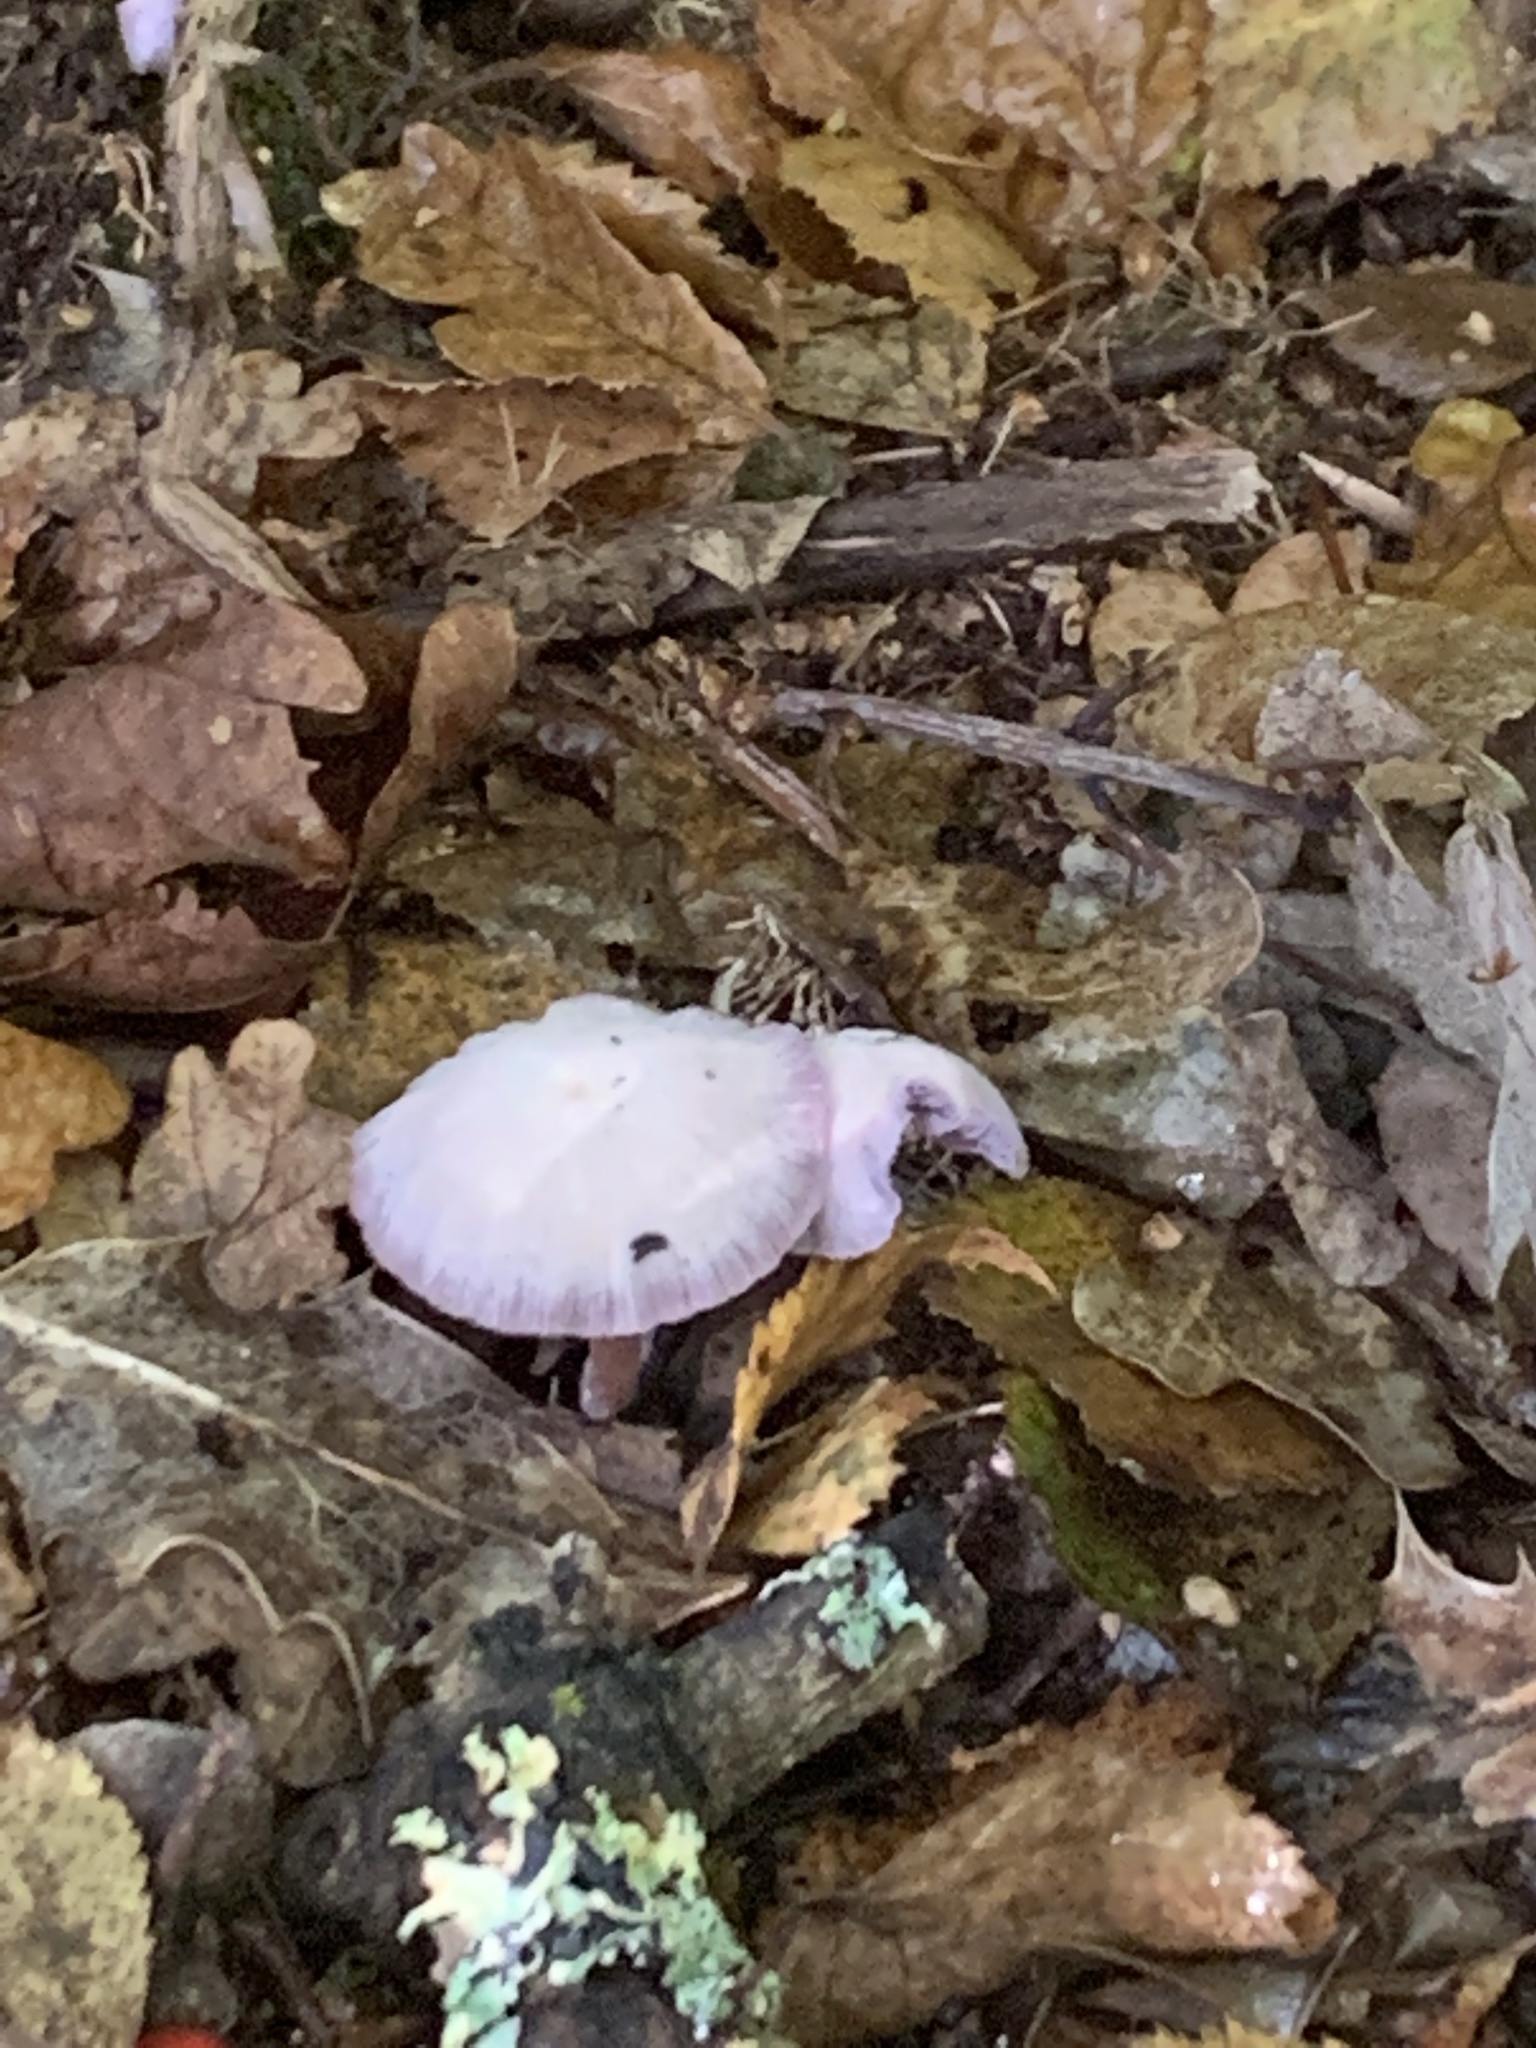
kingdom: Fungi
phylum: Basidiomycota
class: Agaricomycetes
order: Agaricales
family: Hydnangiaceae
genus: Laccaria
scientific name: Laccaria amethystina
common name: Amethyst deceiver
